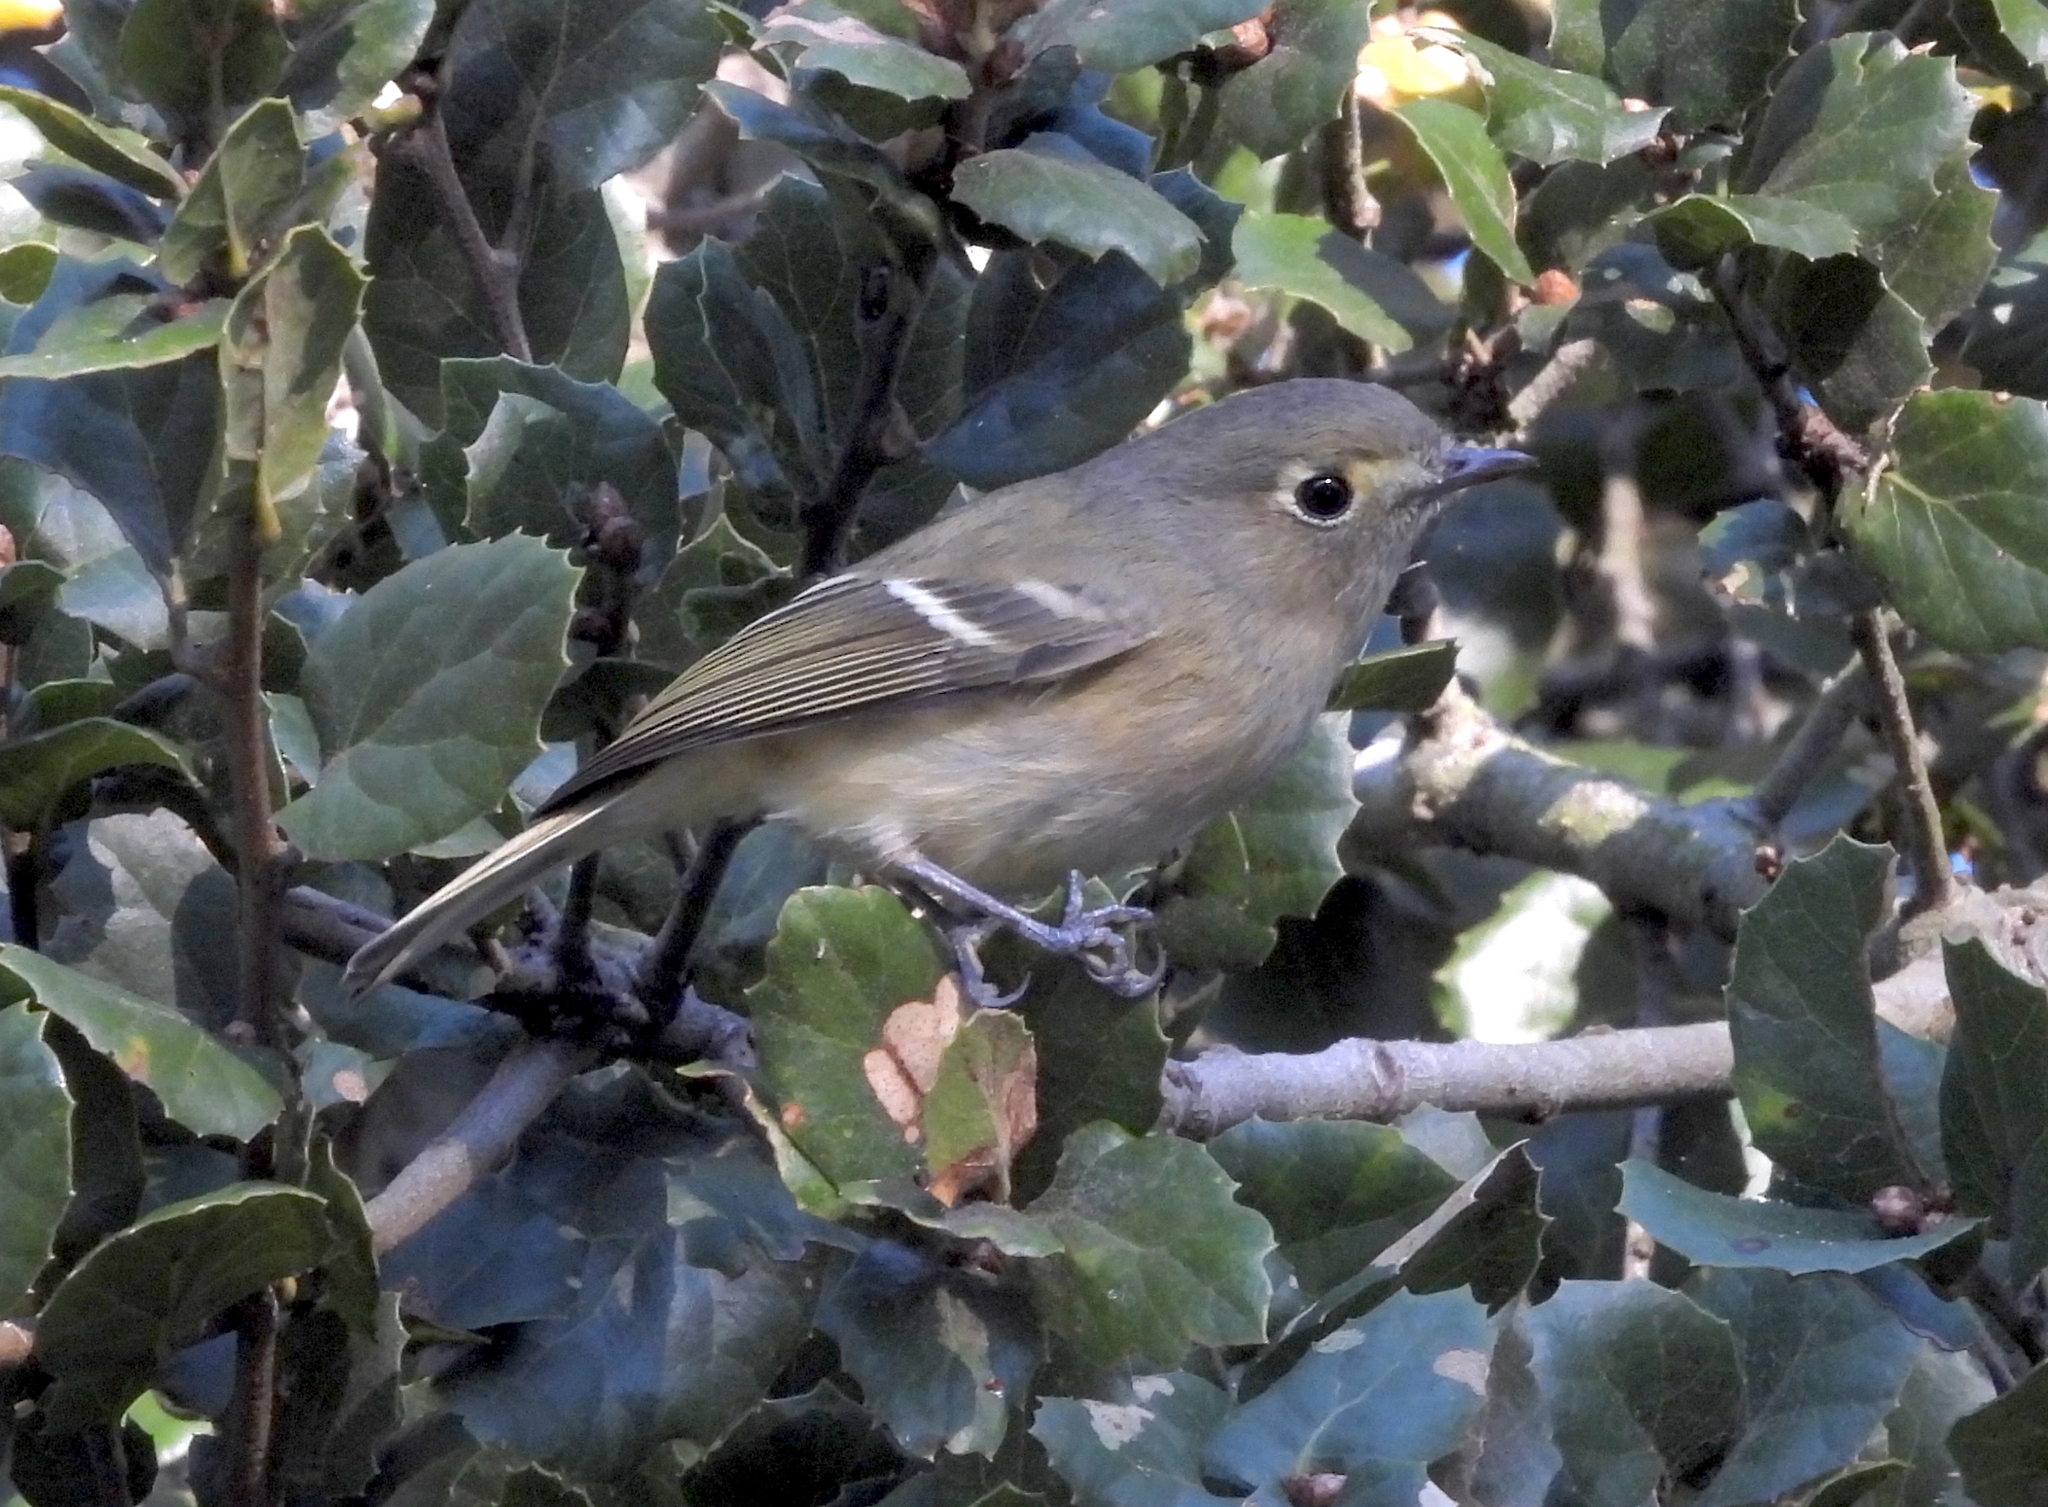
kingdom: Animalia
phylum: Chordata
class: Aves
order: Passeriformes
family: Vireonidae
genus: Vireo
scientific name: Vireo huttoni
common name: Hutton's vireo
